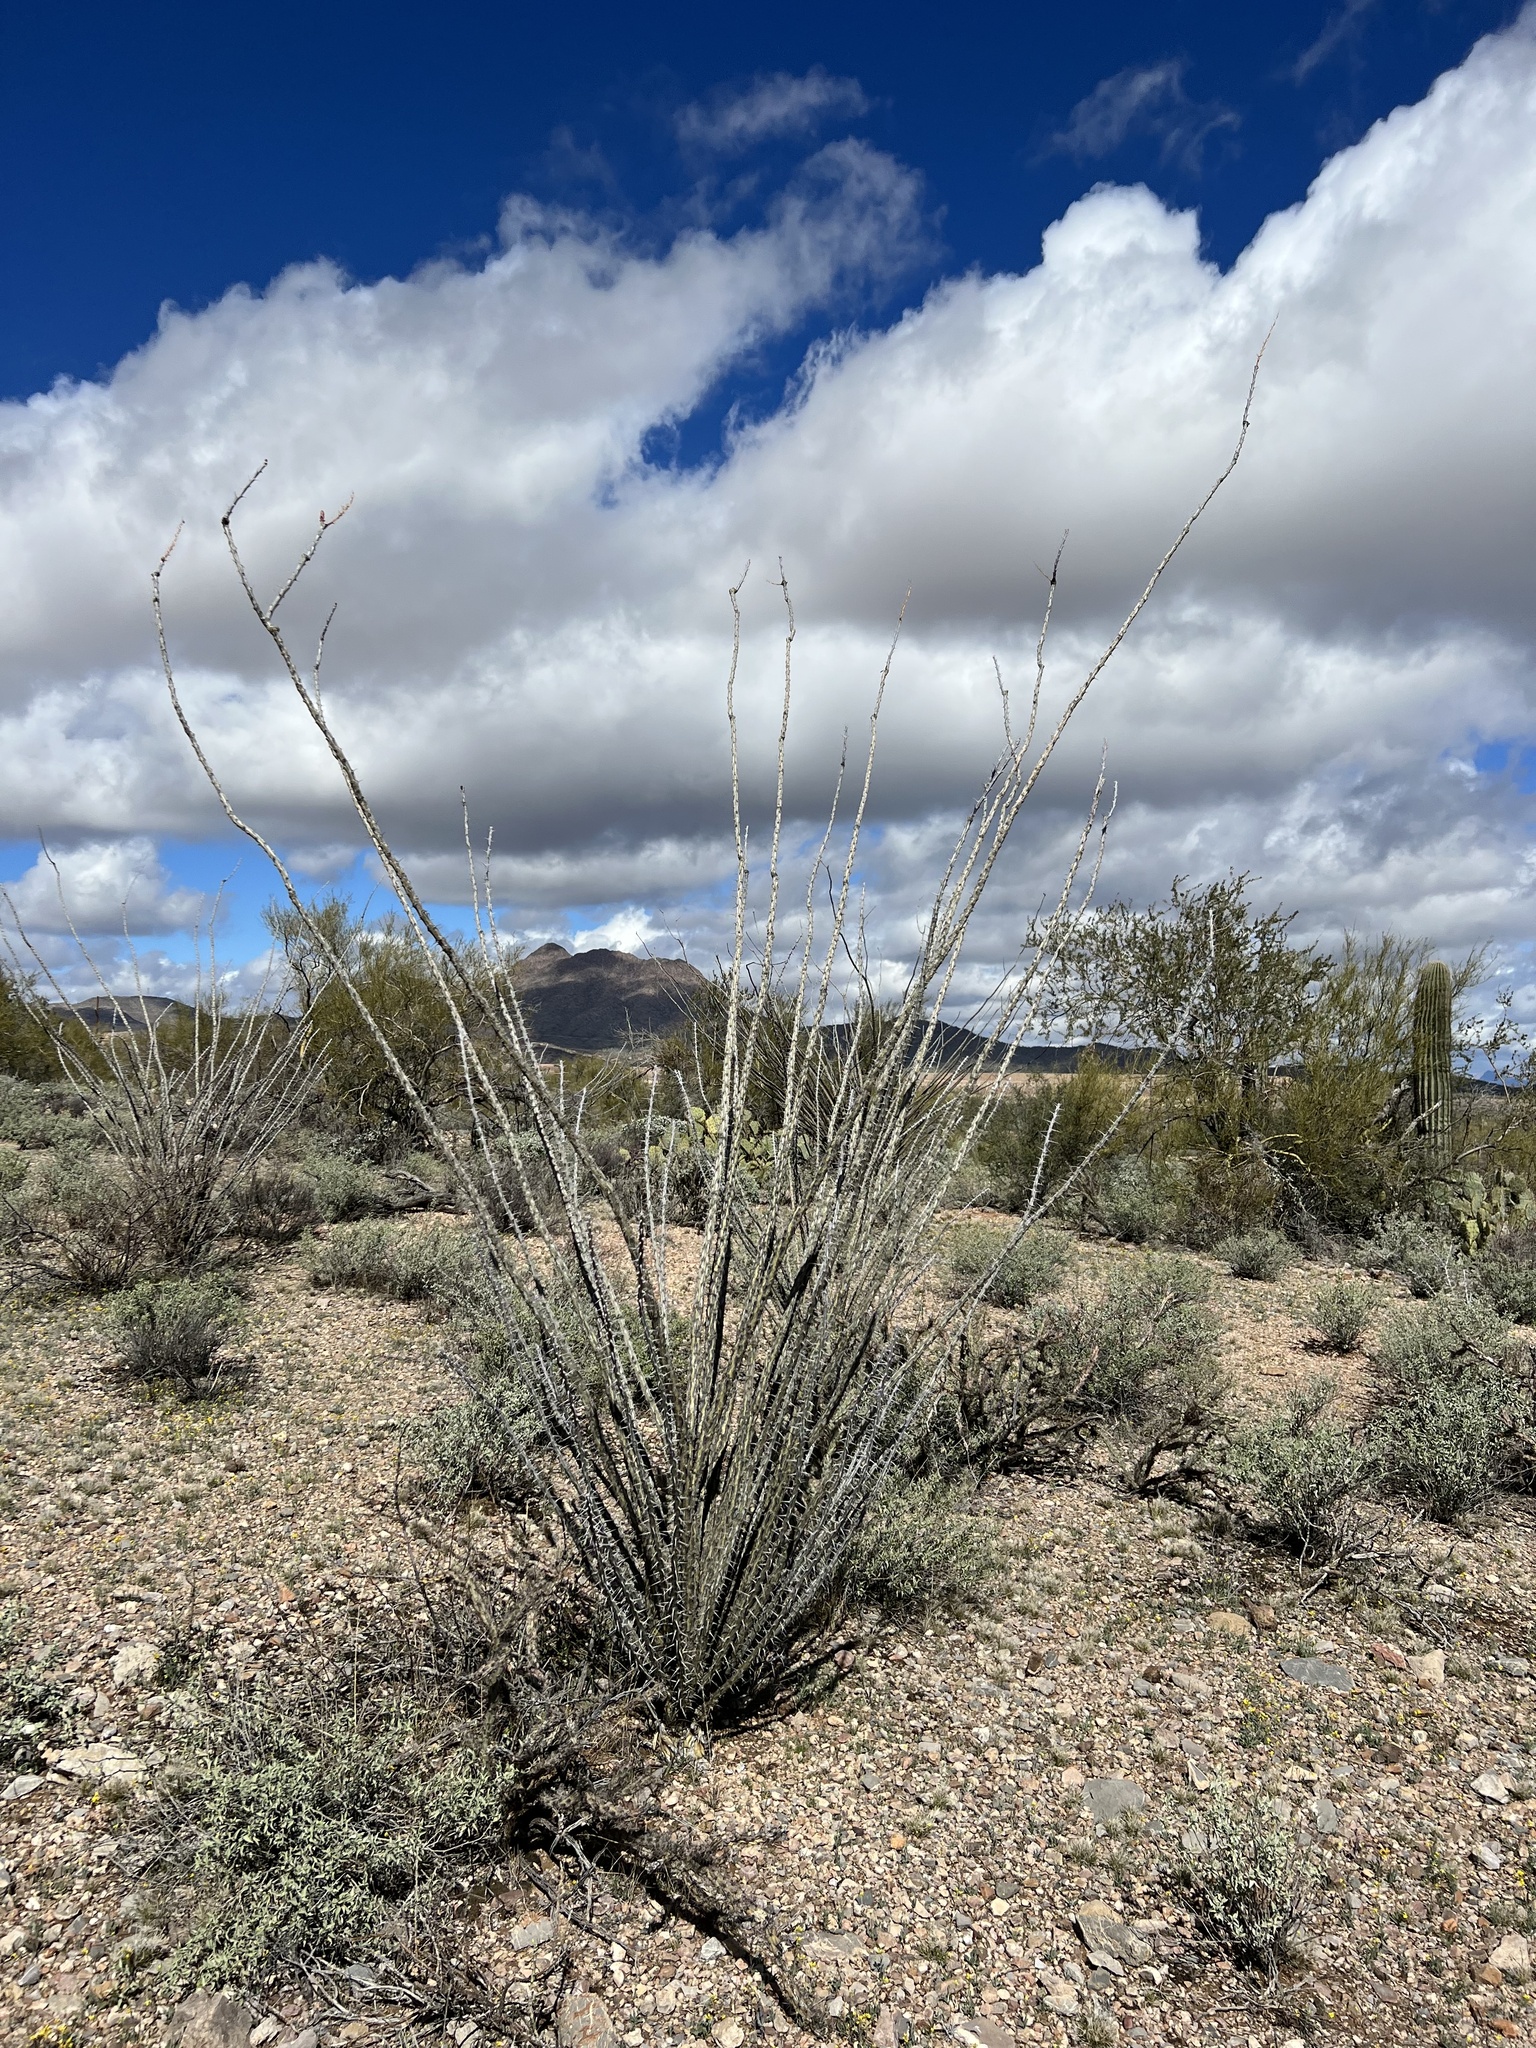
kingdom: Plantae
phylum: Tracheophyta
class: Magnoliopsida
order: Ericales
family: Fouquieriaceae
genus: Fouquieria
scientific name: Fouquieria splendens
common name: Vine-cactus
